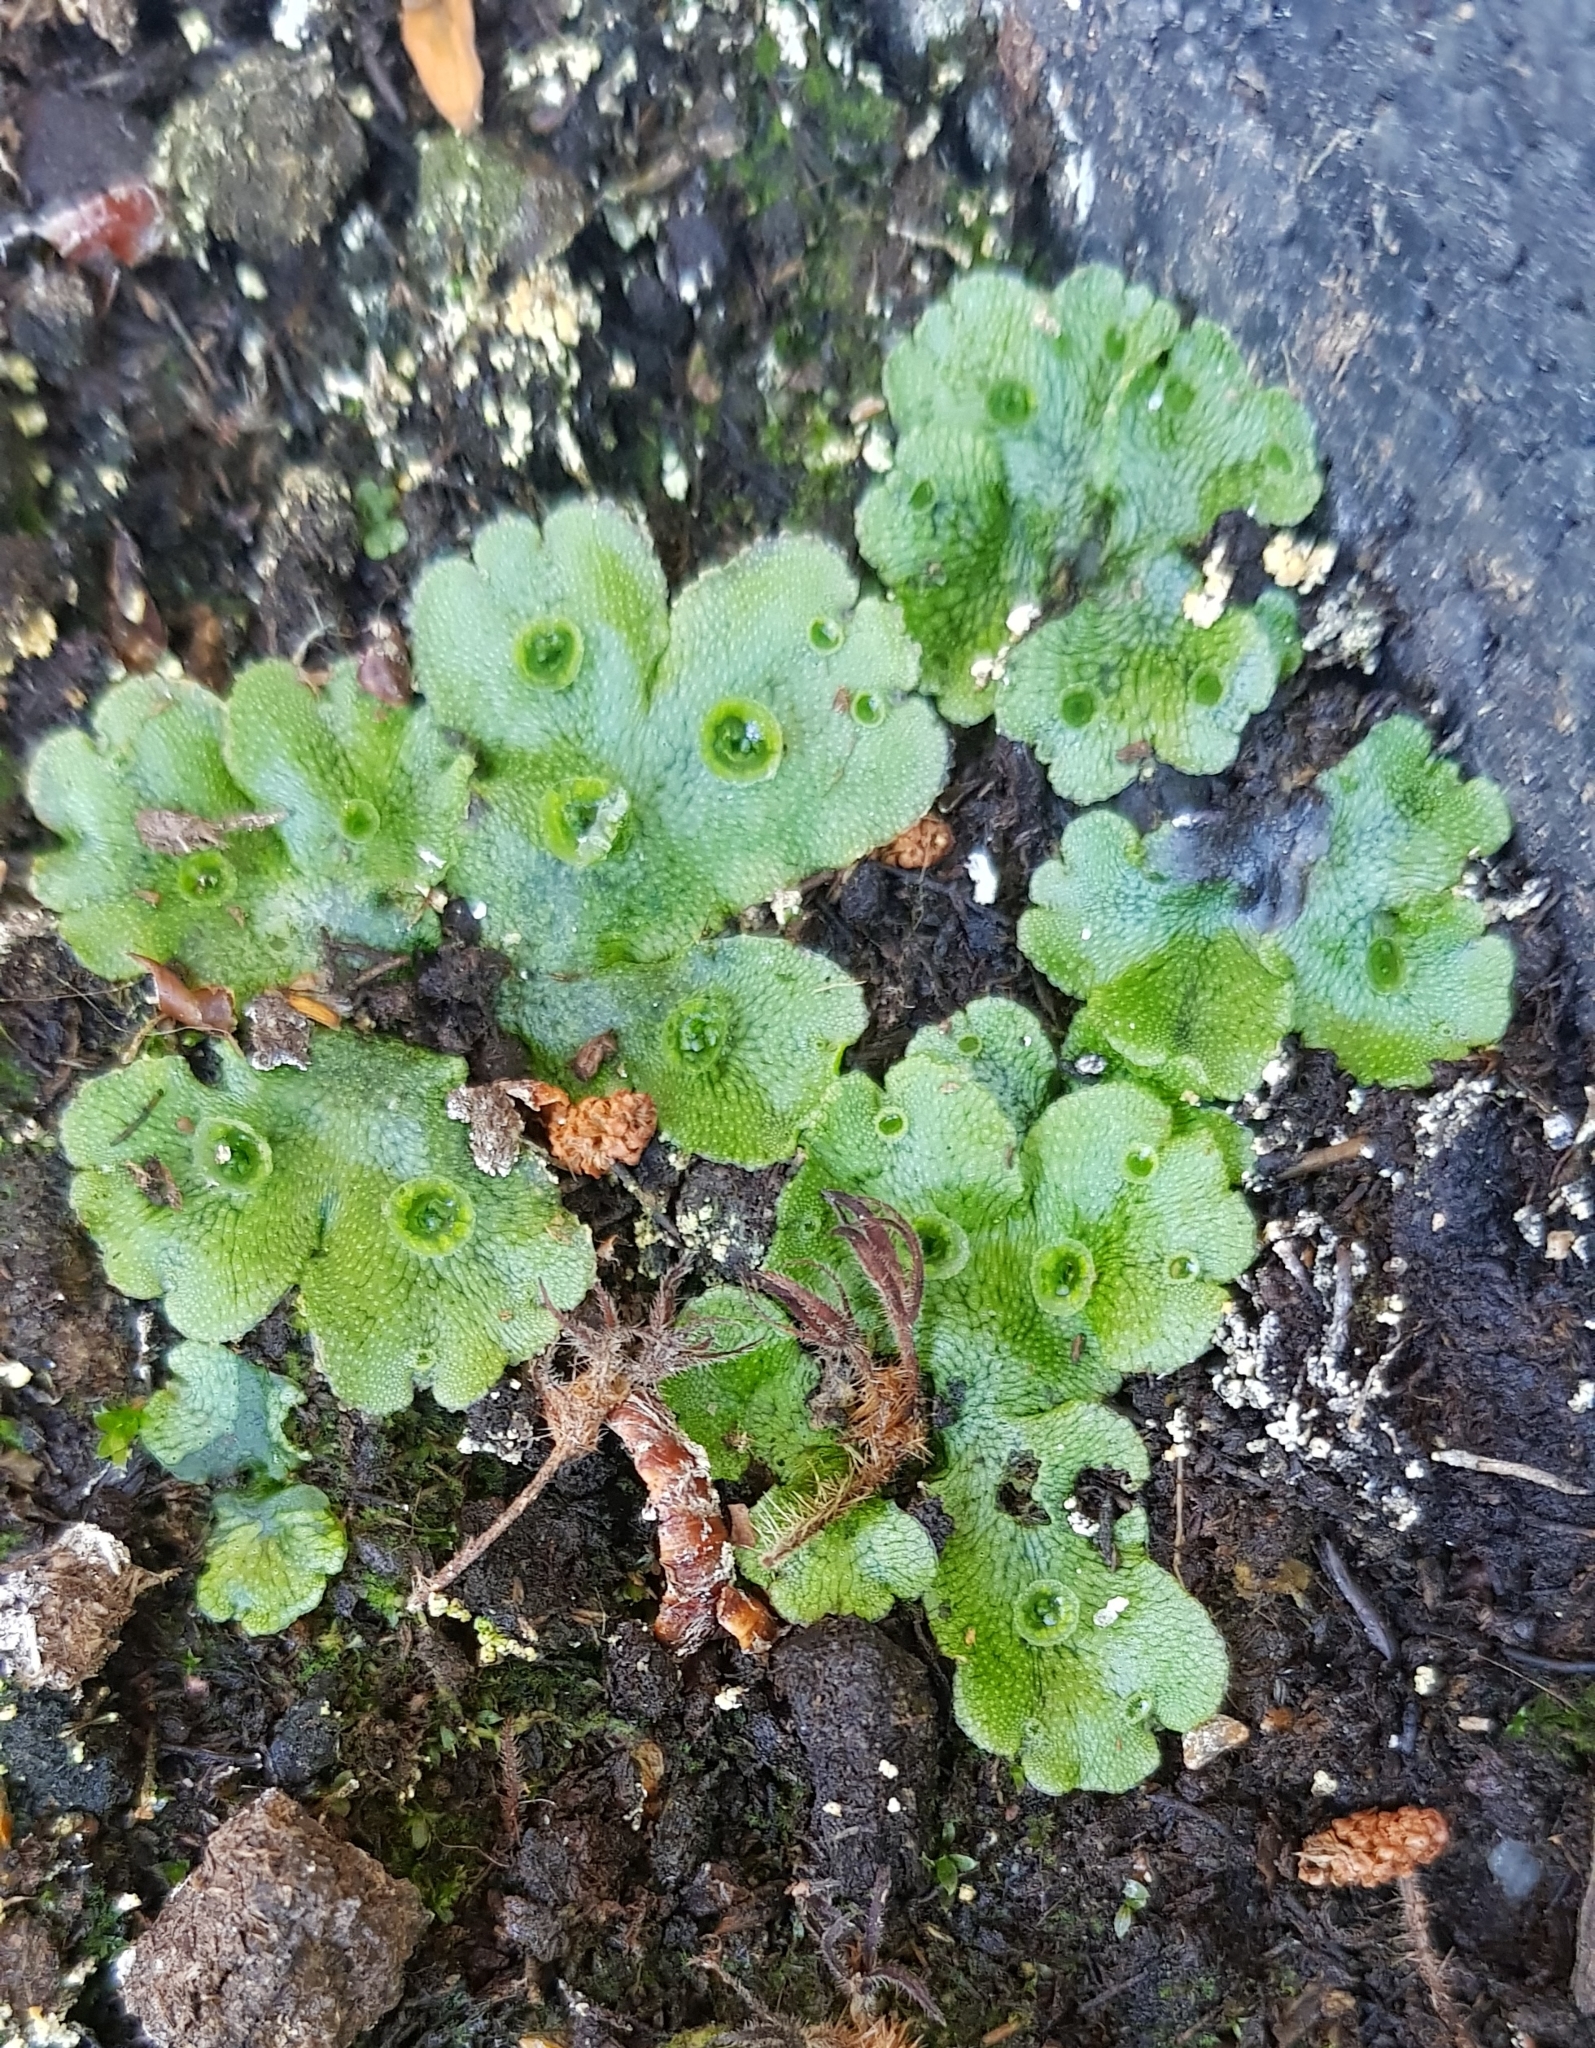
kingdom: Plantae
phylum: Marchantiophyta
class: Marchantiopsida
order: Marchantiales
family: Marchantiaceae
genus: Marchantia
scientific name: Marchantia polymorpha
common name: Common liverwort
